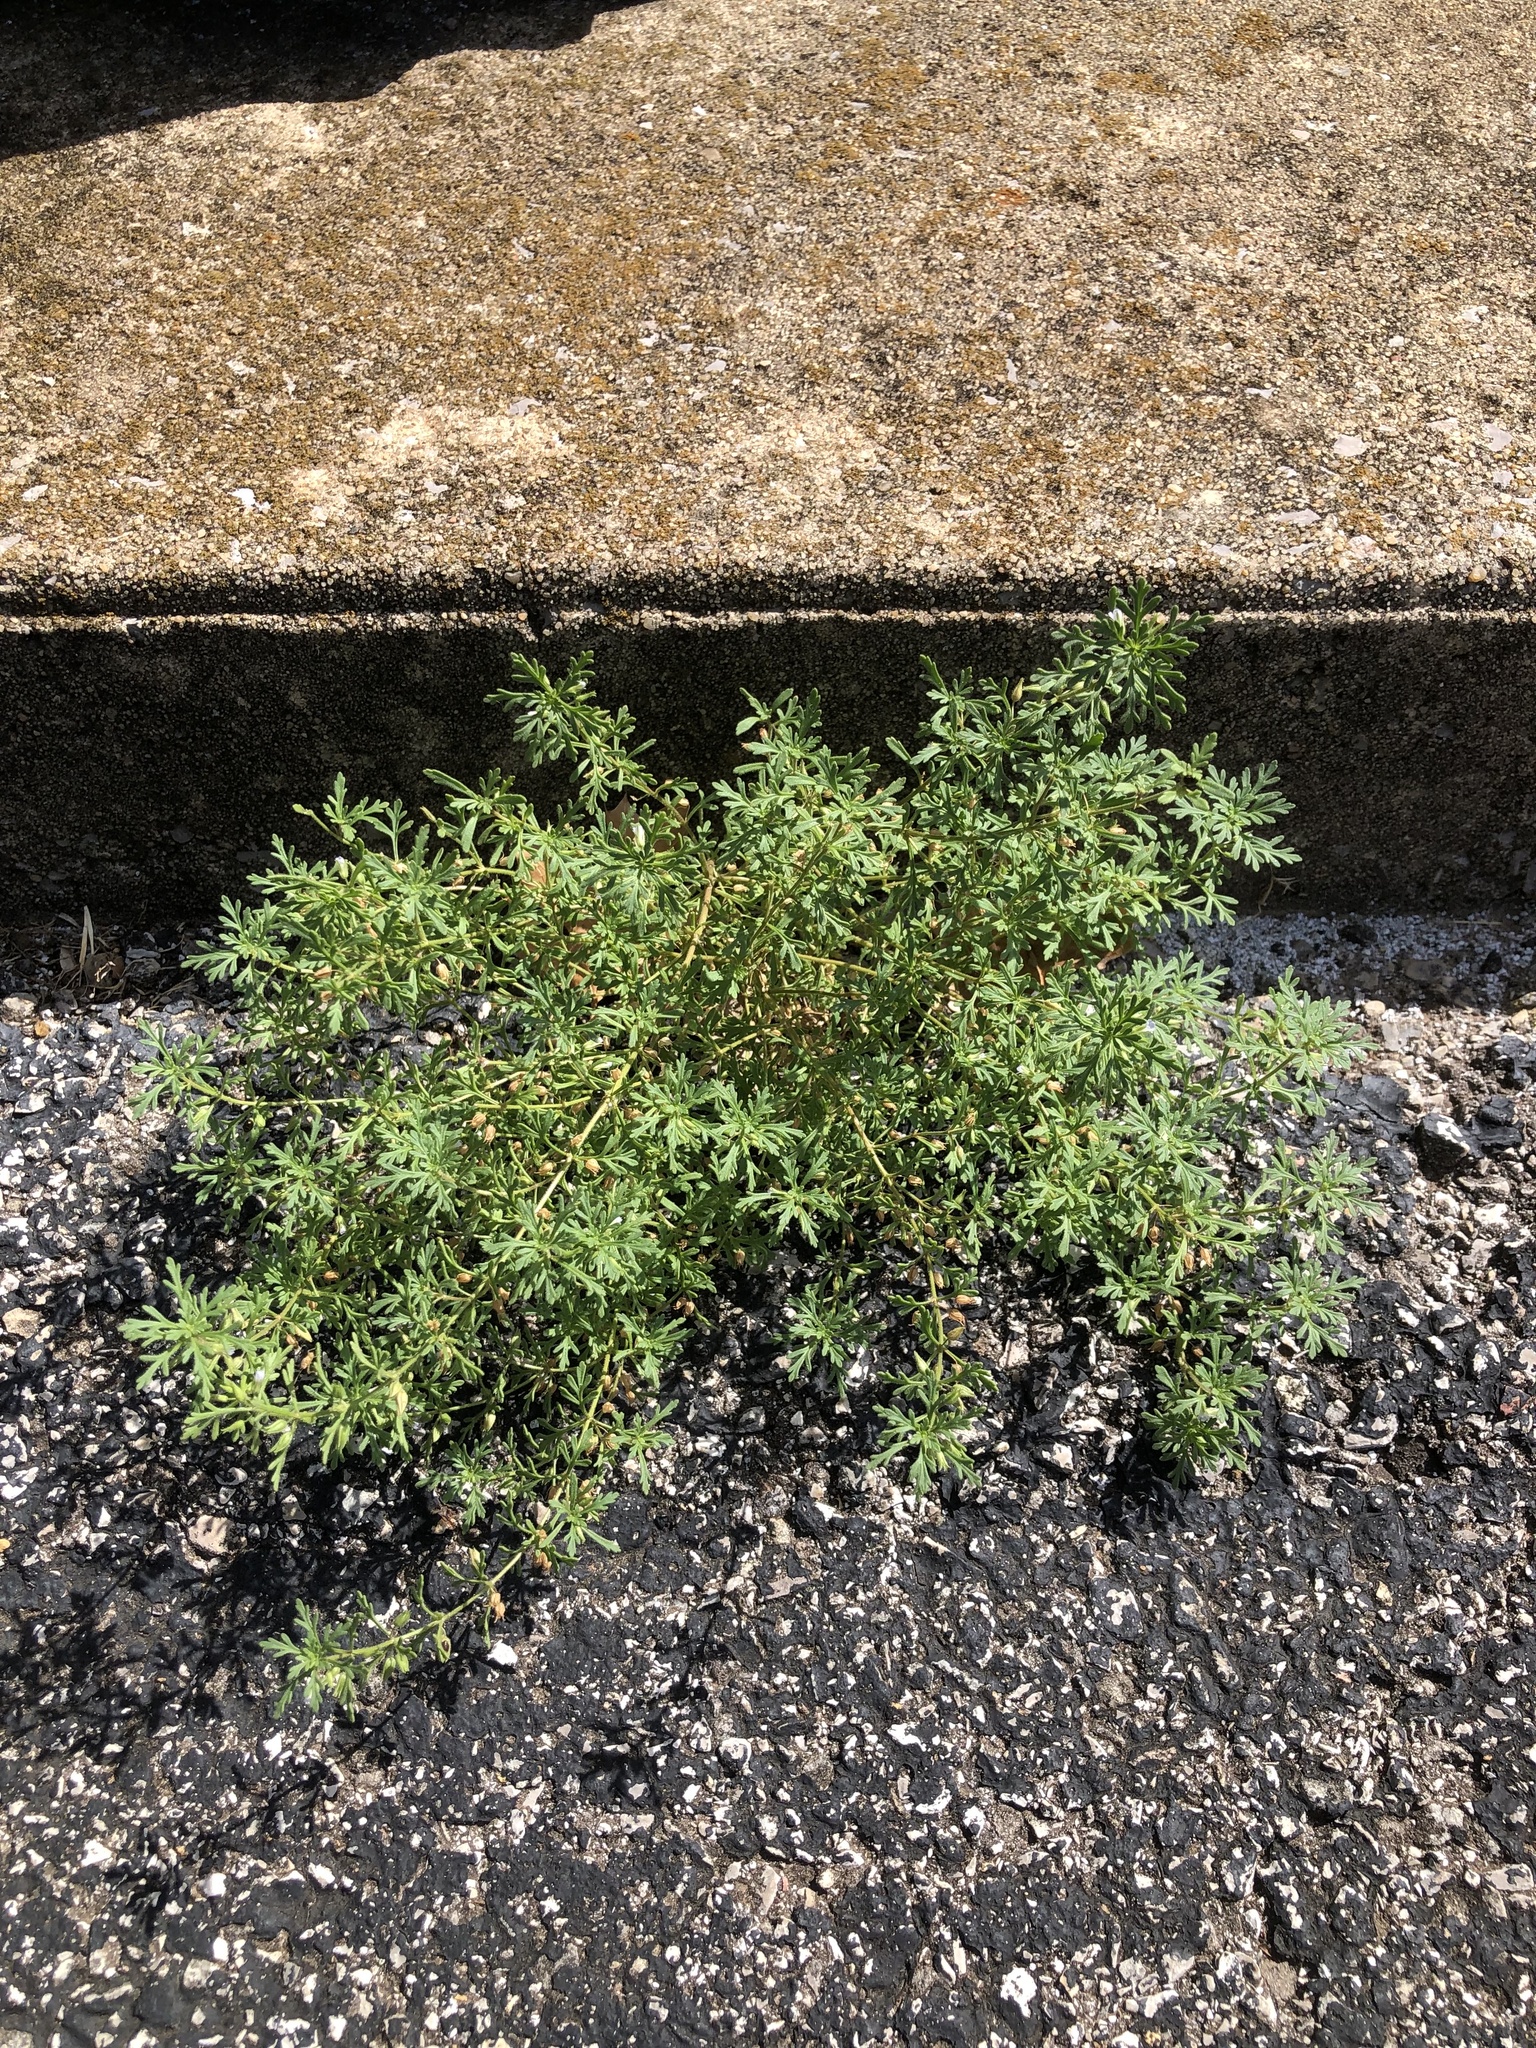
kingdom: Plantae
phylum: Tracheophyta
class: Magnoliopsida
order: Lamiales
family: Plantaginaceae
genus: Leucospora
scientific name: Leucospora multifida
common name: Narrow-leaf paleseed
